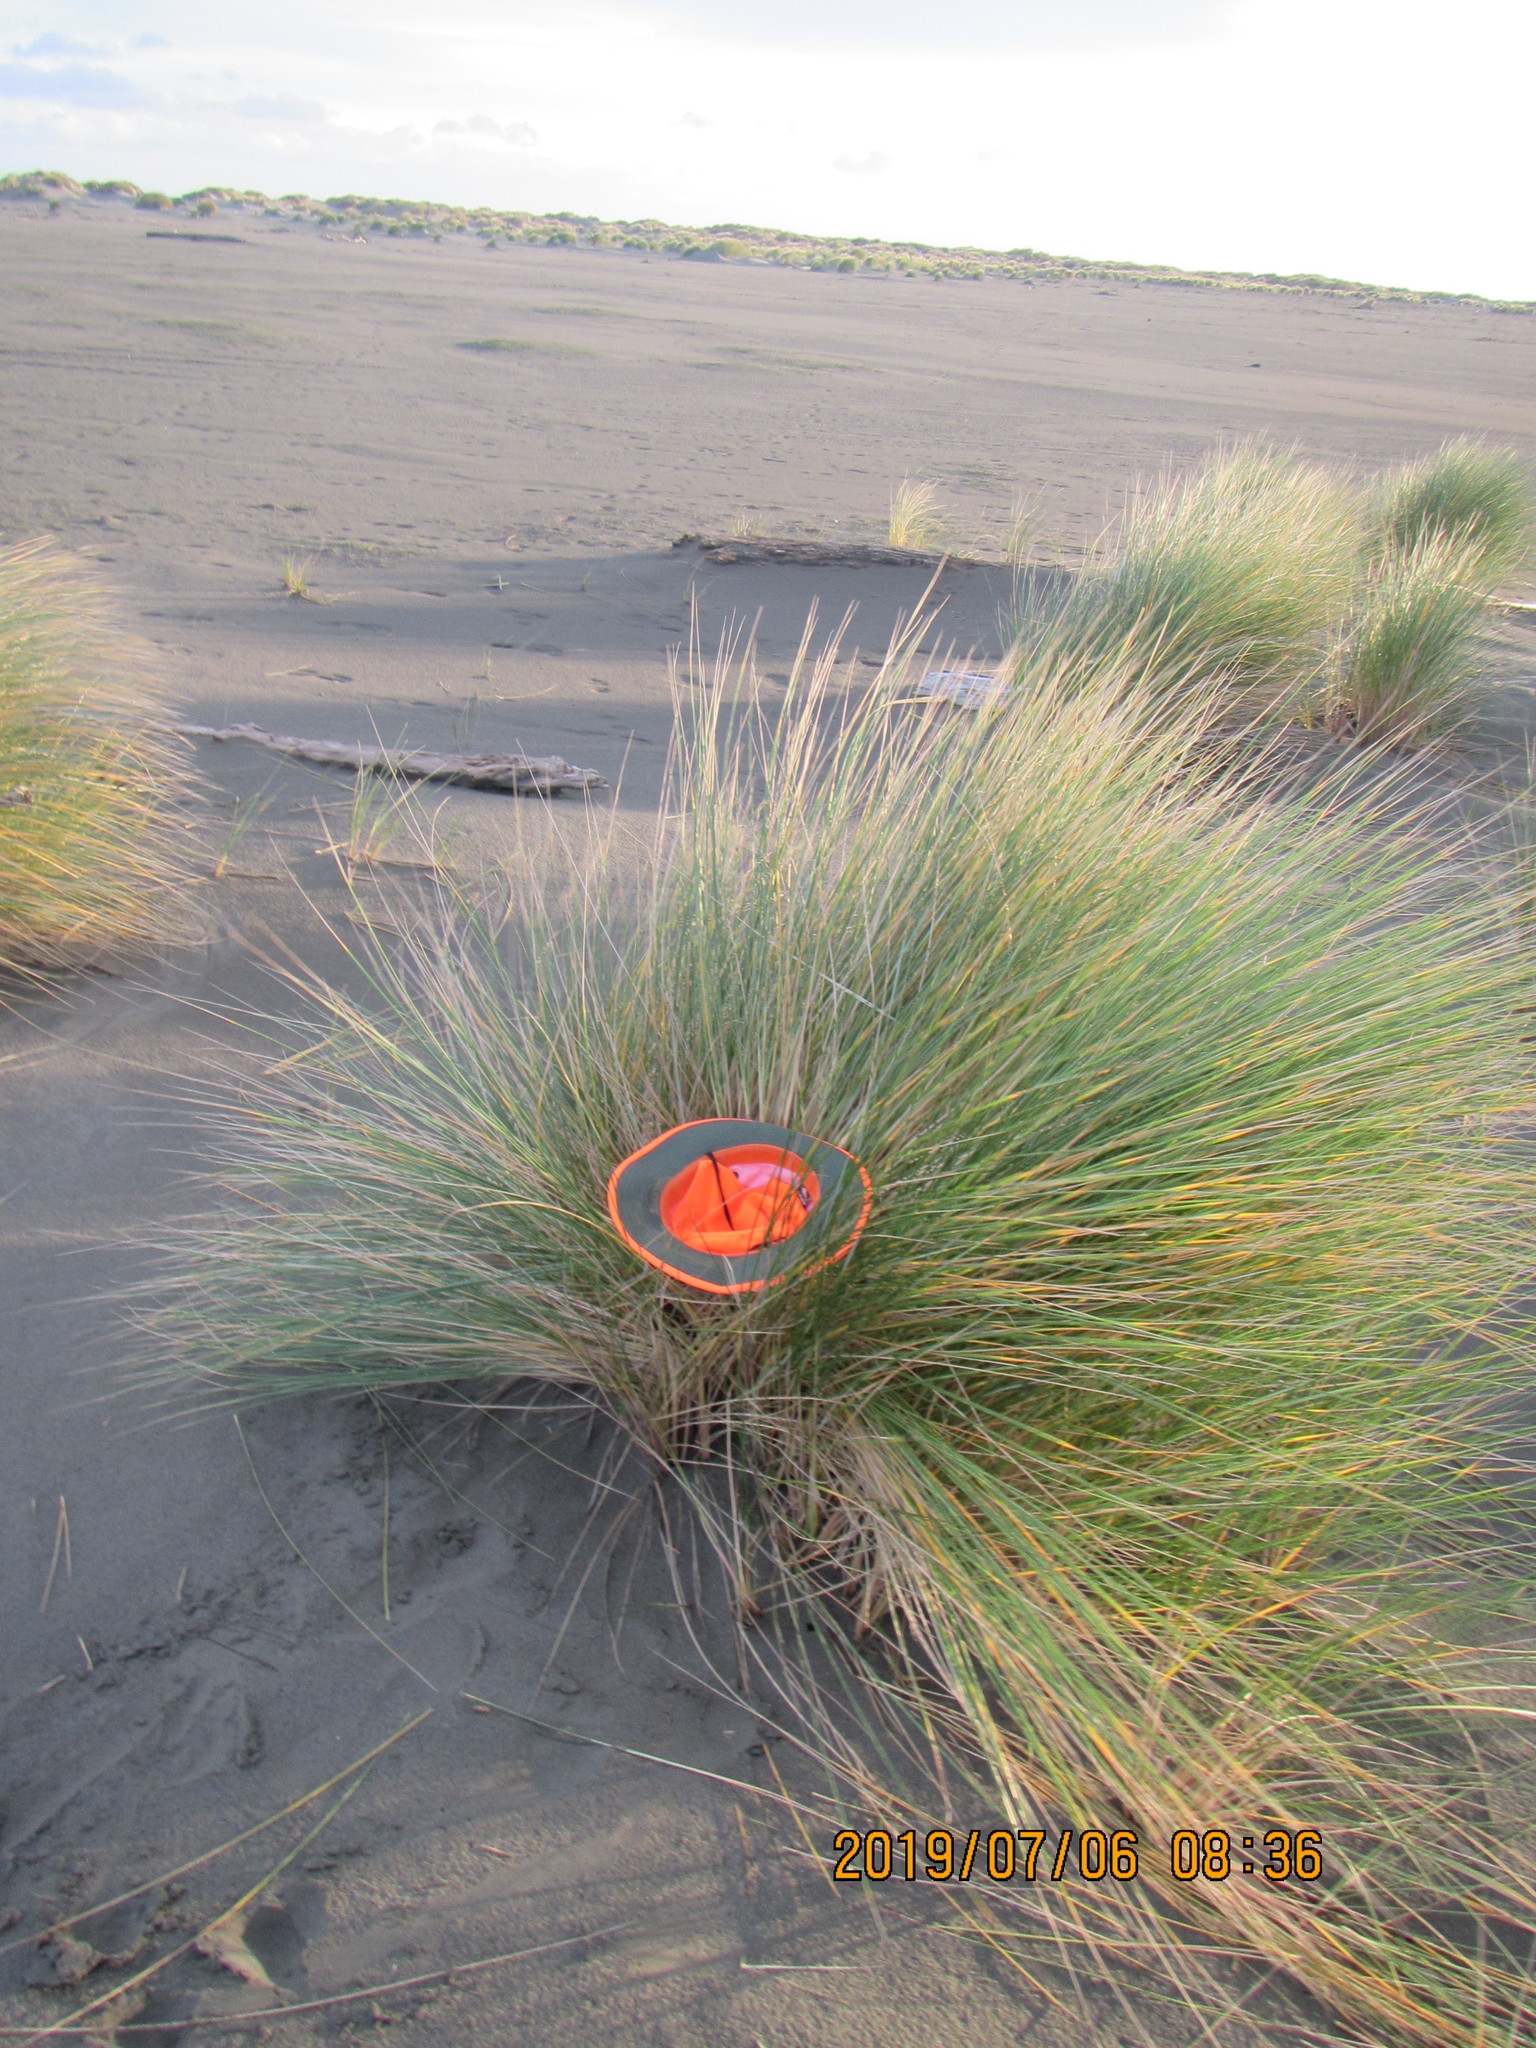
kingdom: Animalia
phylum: Arthropoda
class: Arachnida
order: Araneae
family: Theridiidae
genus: Steatoda
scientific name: Steatoda capensis
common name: Cobweb weaver
